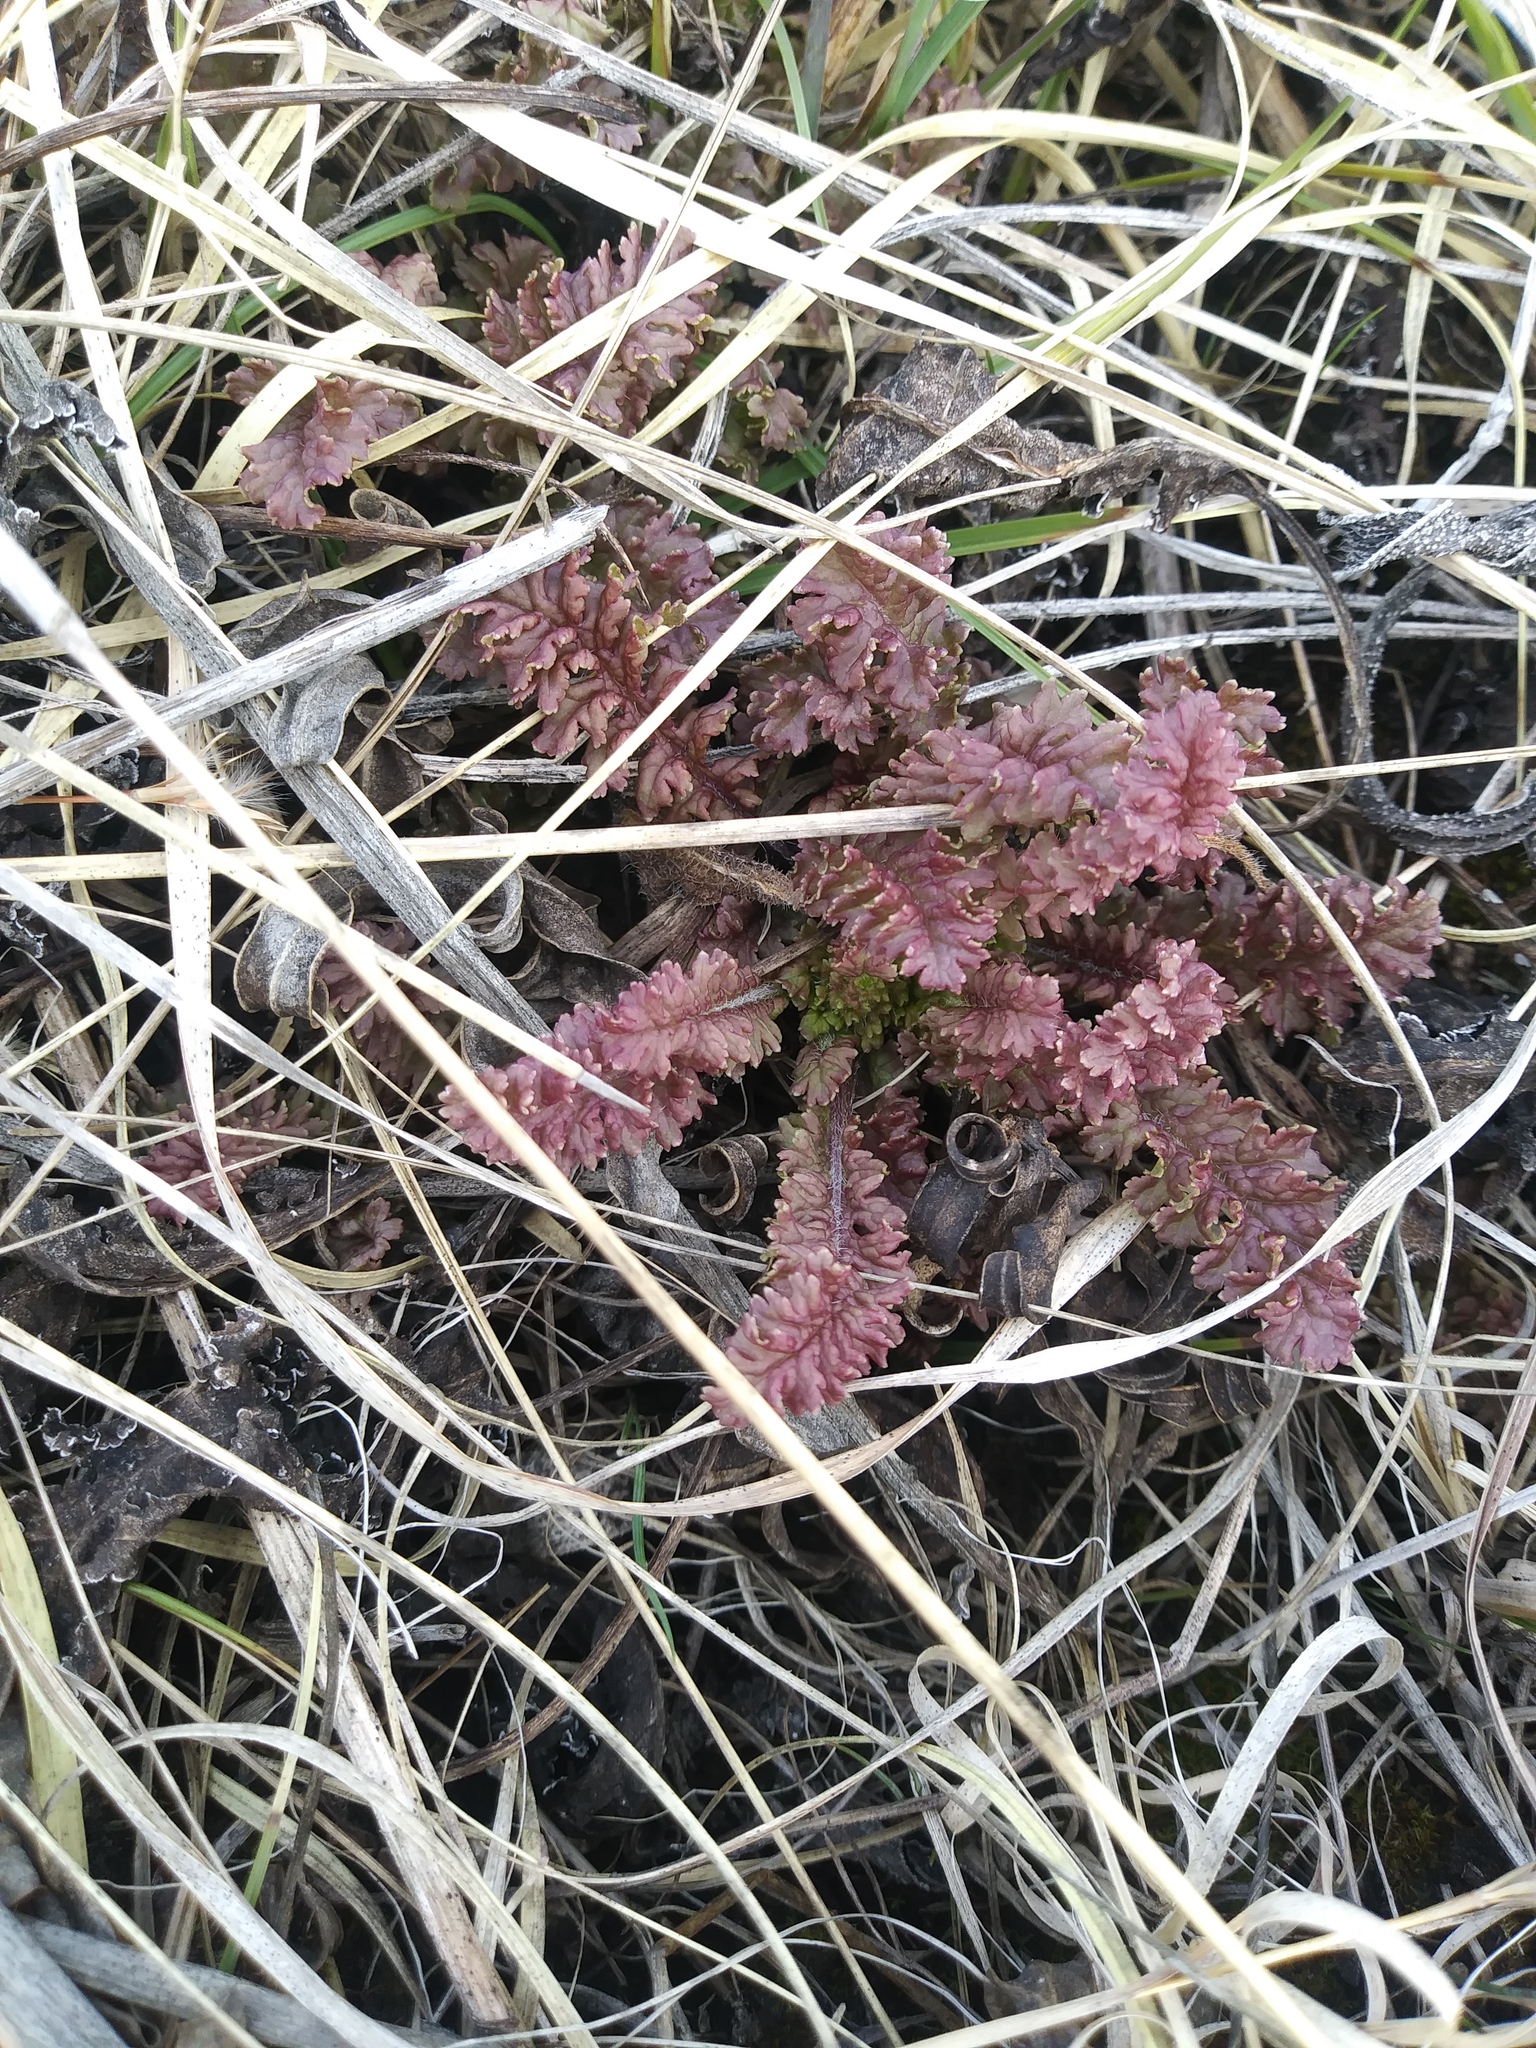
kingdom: Plantae
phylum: Tracheophyta
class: Magnoliopsida
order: Lamiales
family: Orobanchaceae
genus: Pedicularis
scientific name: Pedicularis canadensis
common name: Early lousewort
